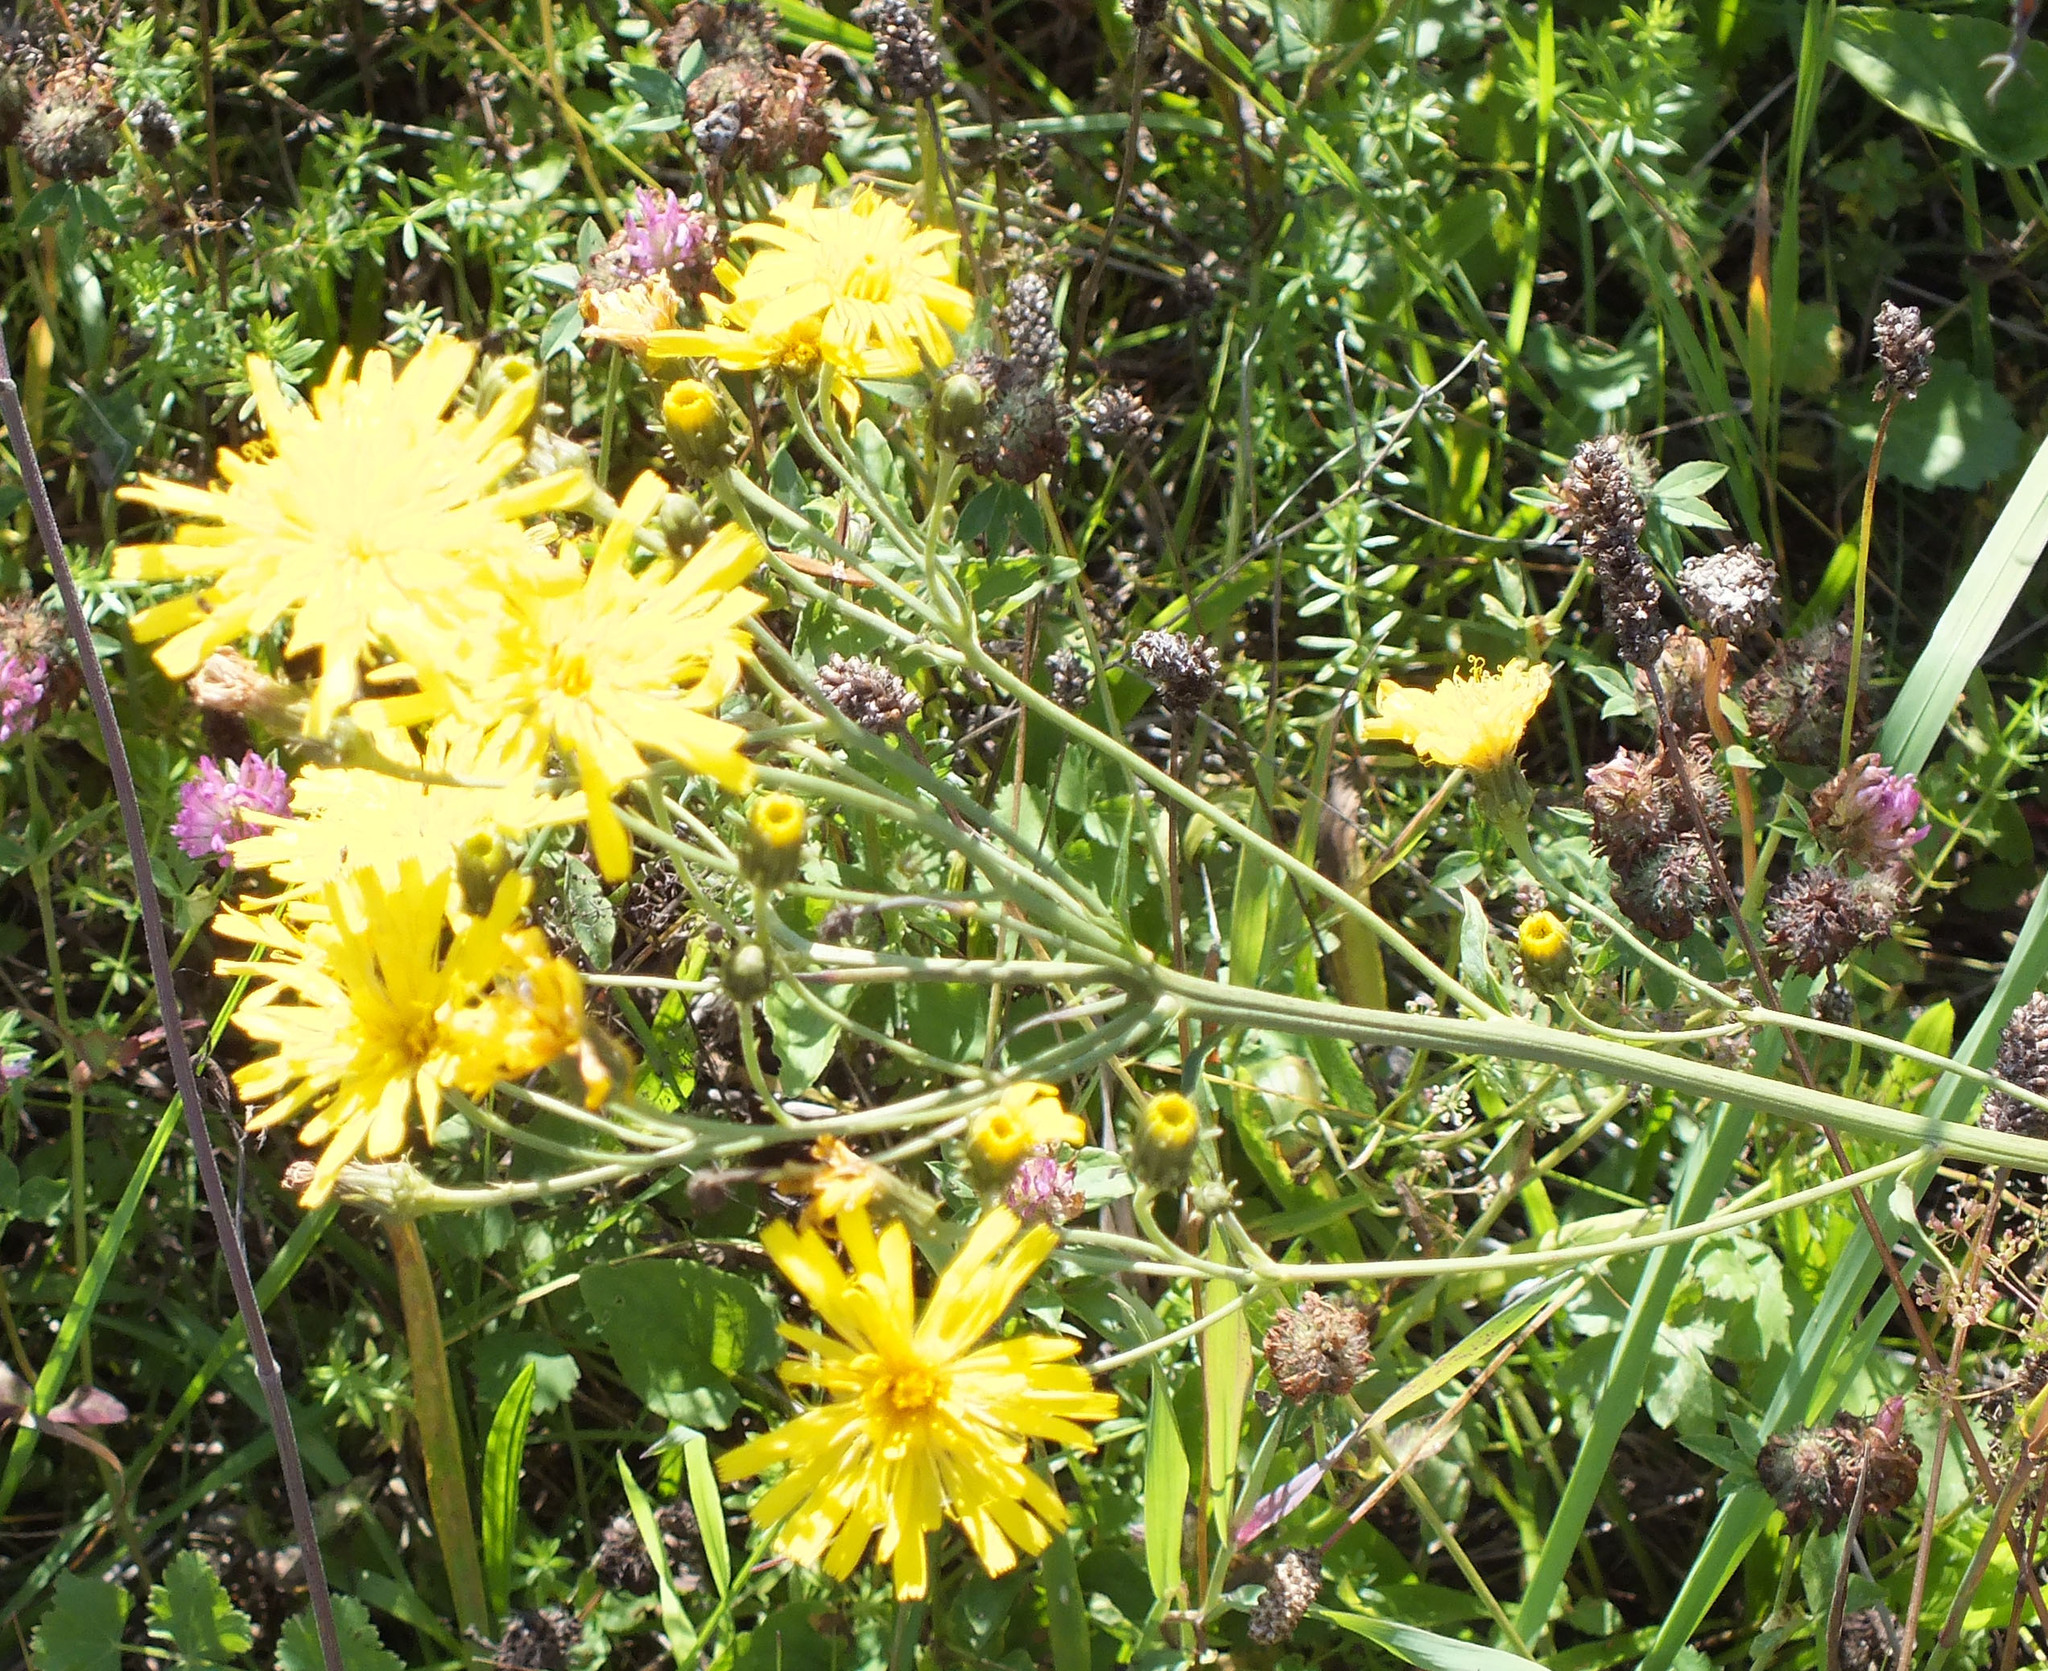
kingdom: Plantae
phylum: Tracheophyta
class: Magnoliopsida
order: Asterales
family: Asteraceae
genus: Hieracium
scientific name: Hieracium umbellatum
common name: Northern hawkweed
